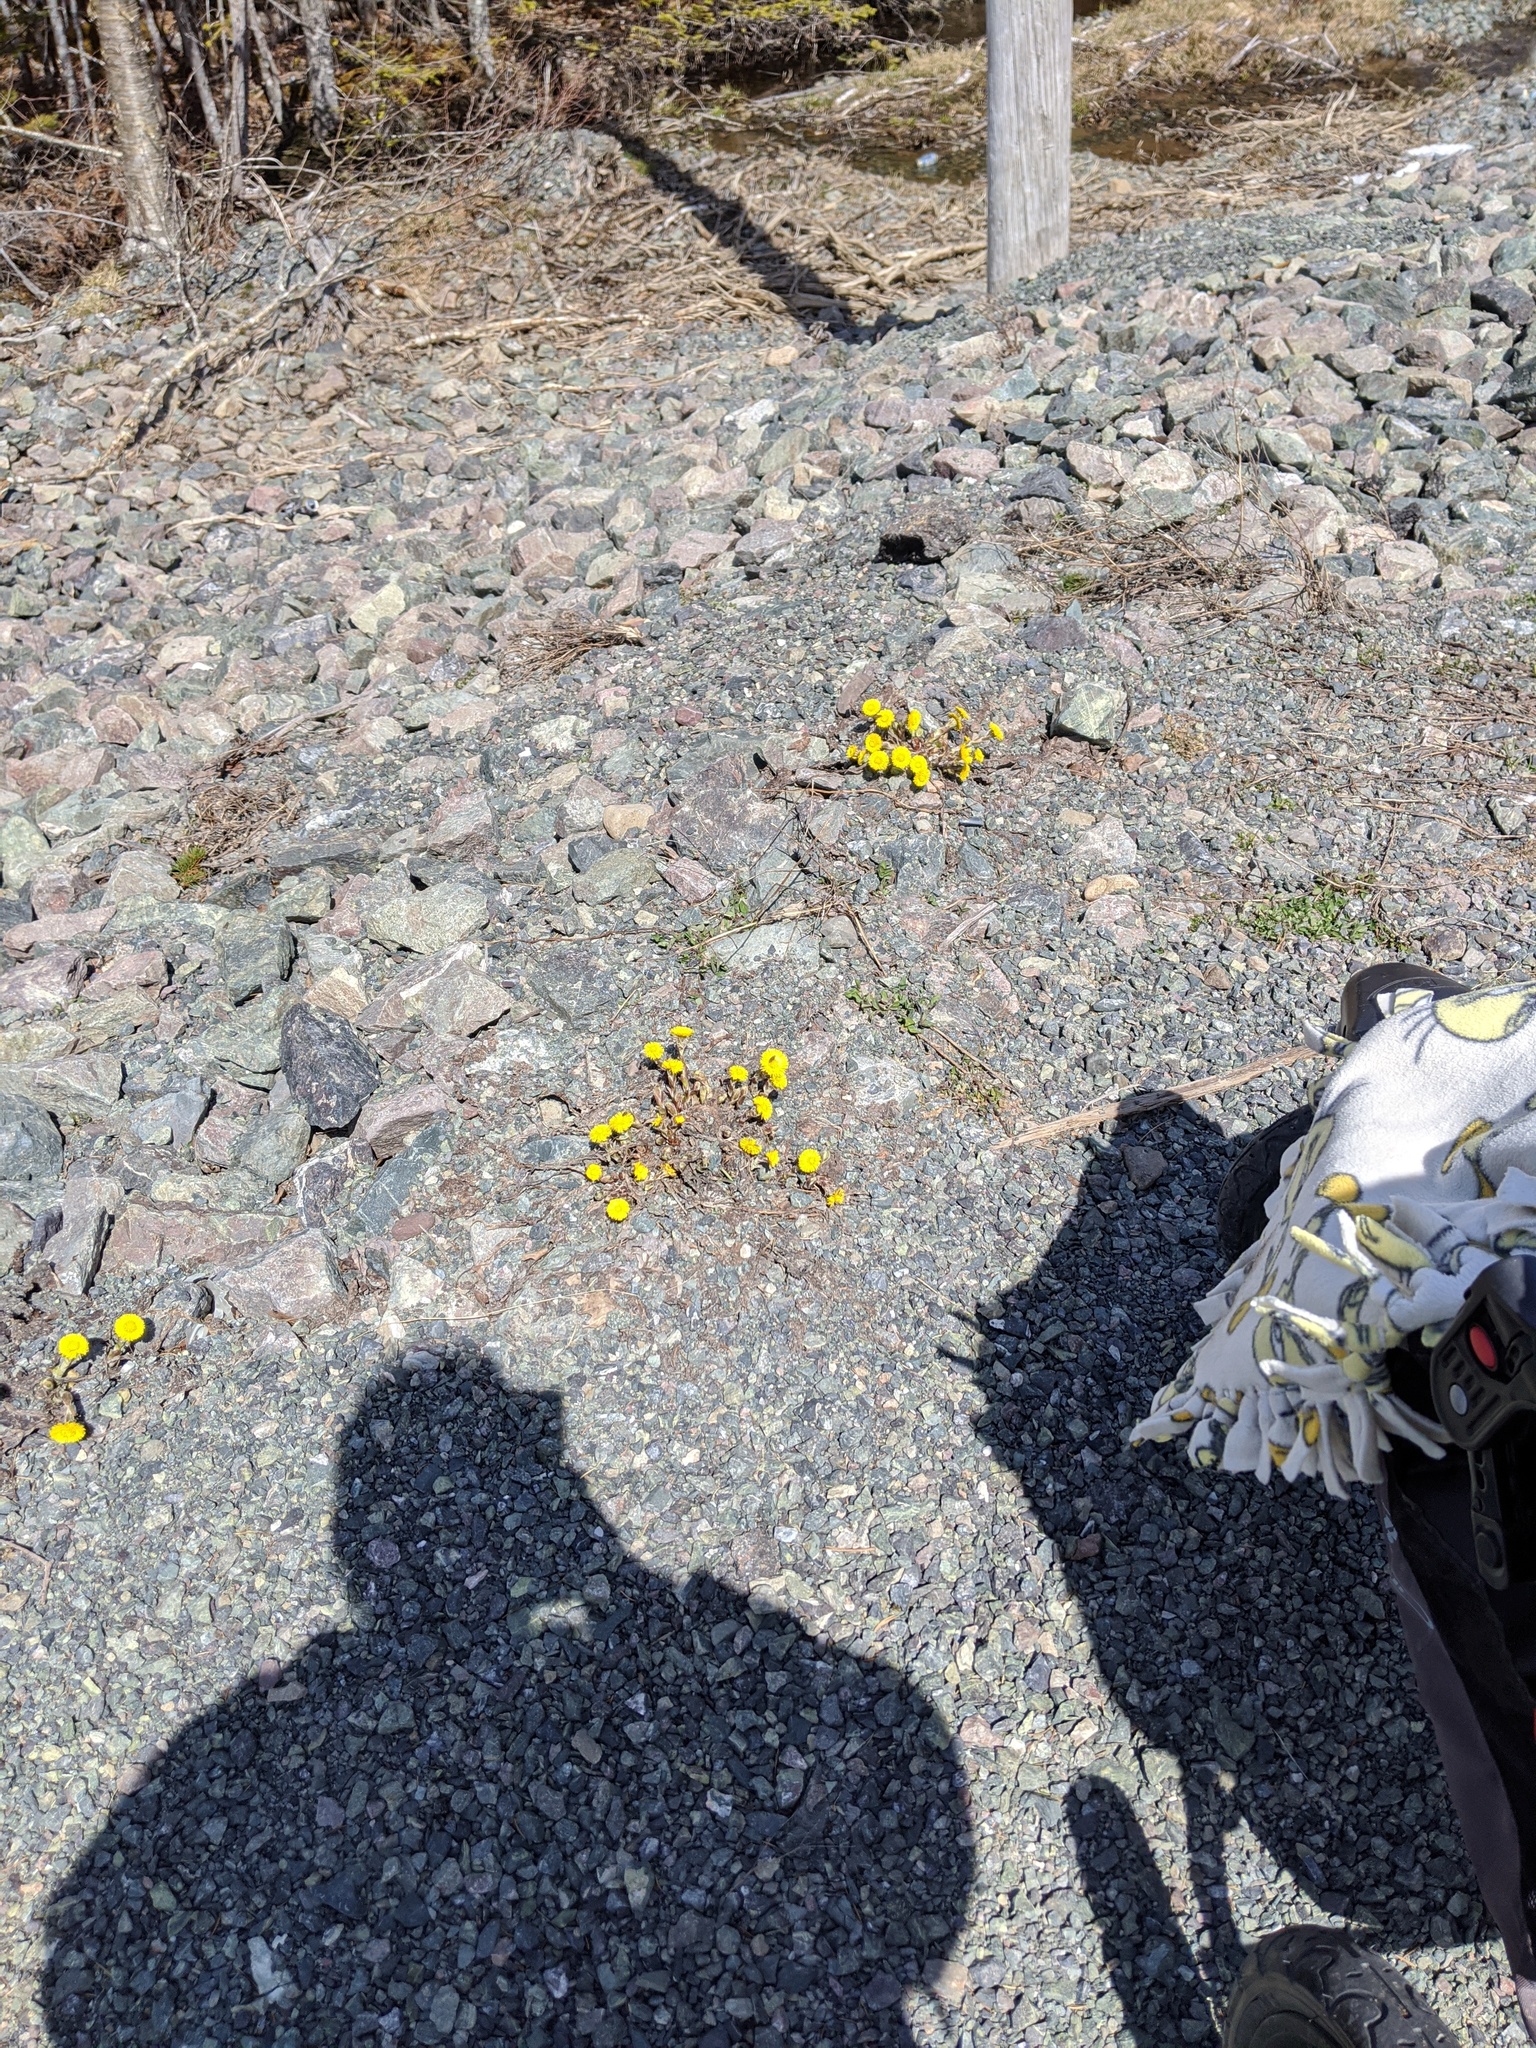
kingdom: Plantae
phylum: Tracheophyta
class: Magnoliopsida
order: Asterales
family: Asteraceae
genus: Tussilago
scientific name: Tussilago farfara
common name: Coltsfoot
